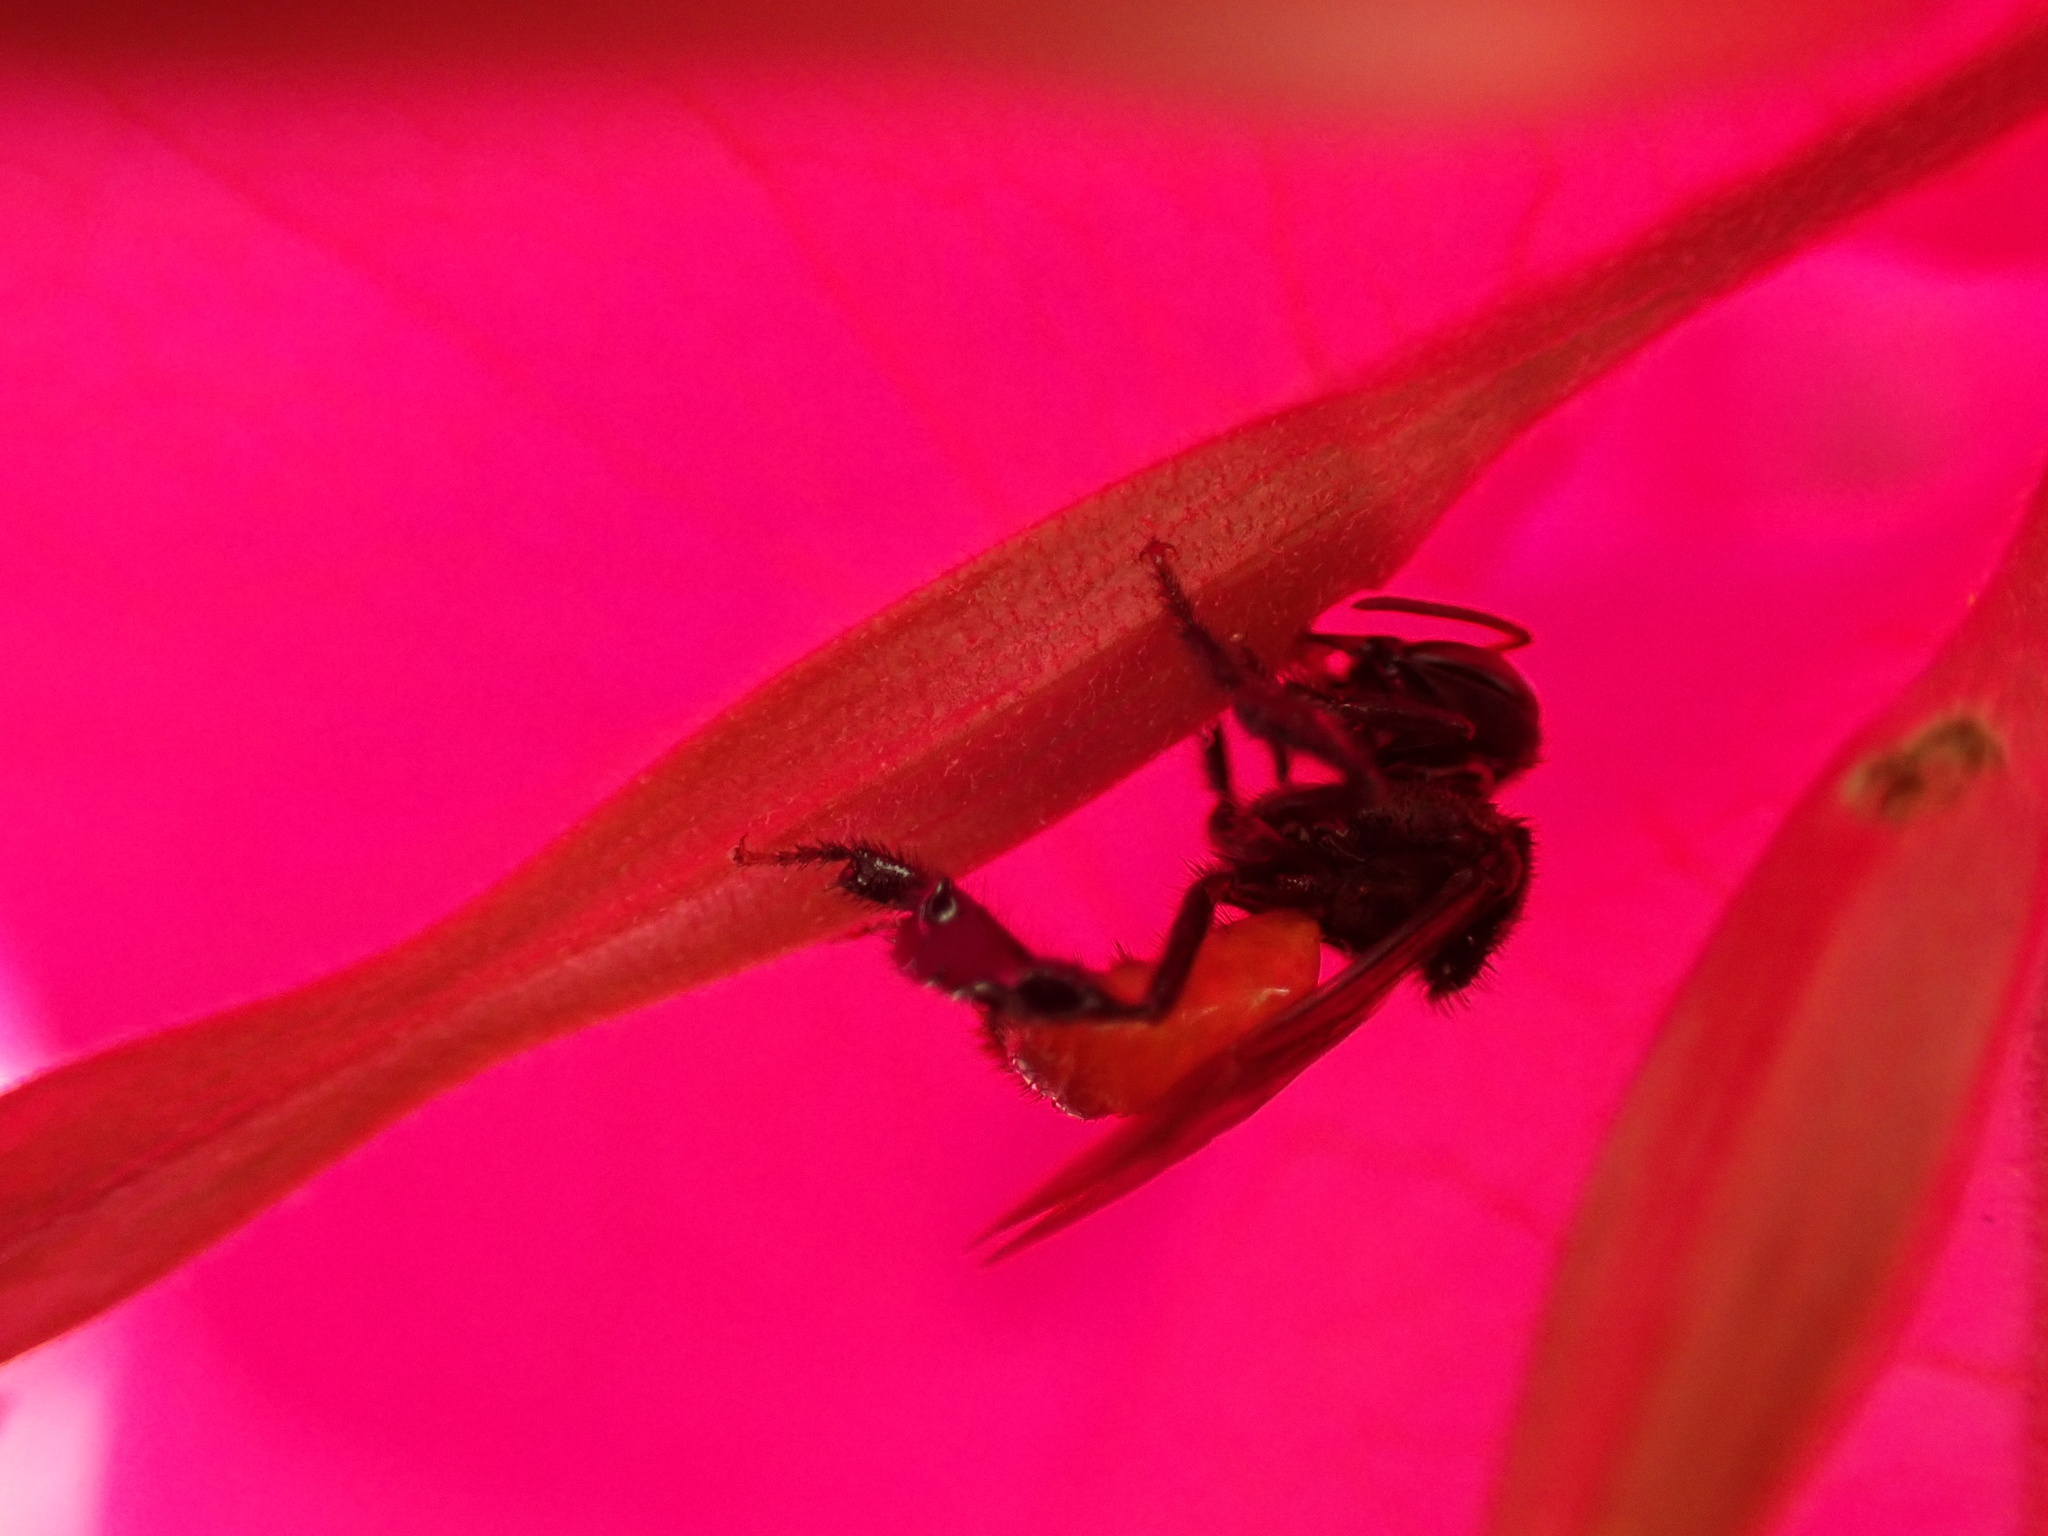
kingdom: Animalia
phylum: Arthropoda
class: Insecta
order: Hymenoptera
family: Apidae
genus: Trigona
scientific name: Trigona fulviventris
